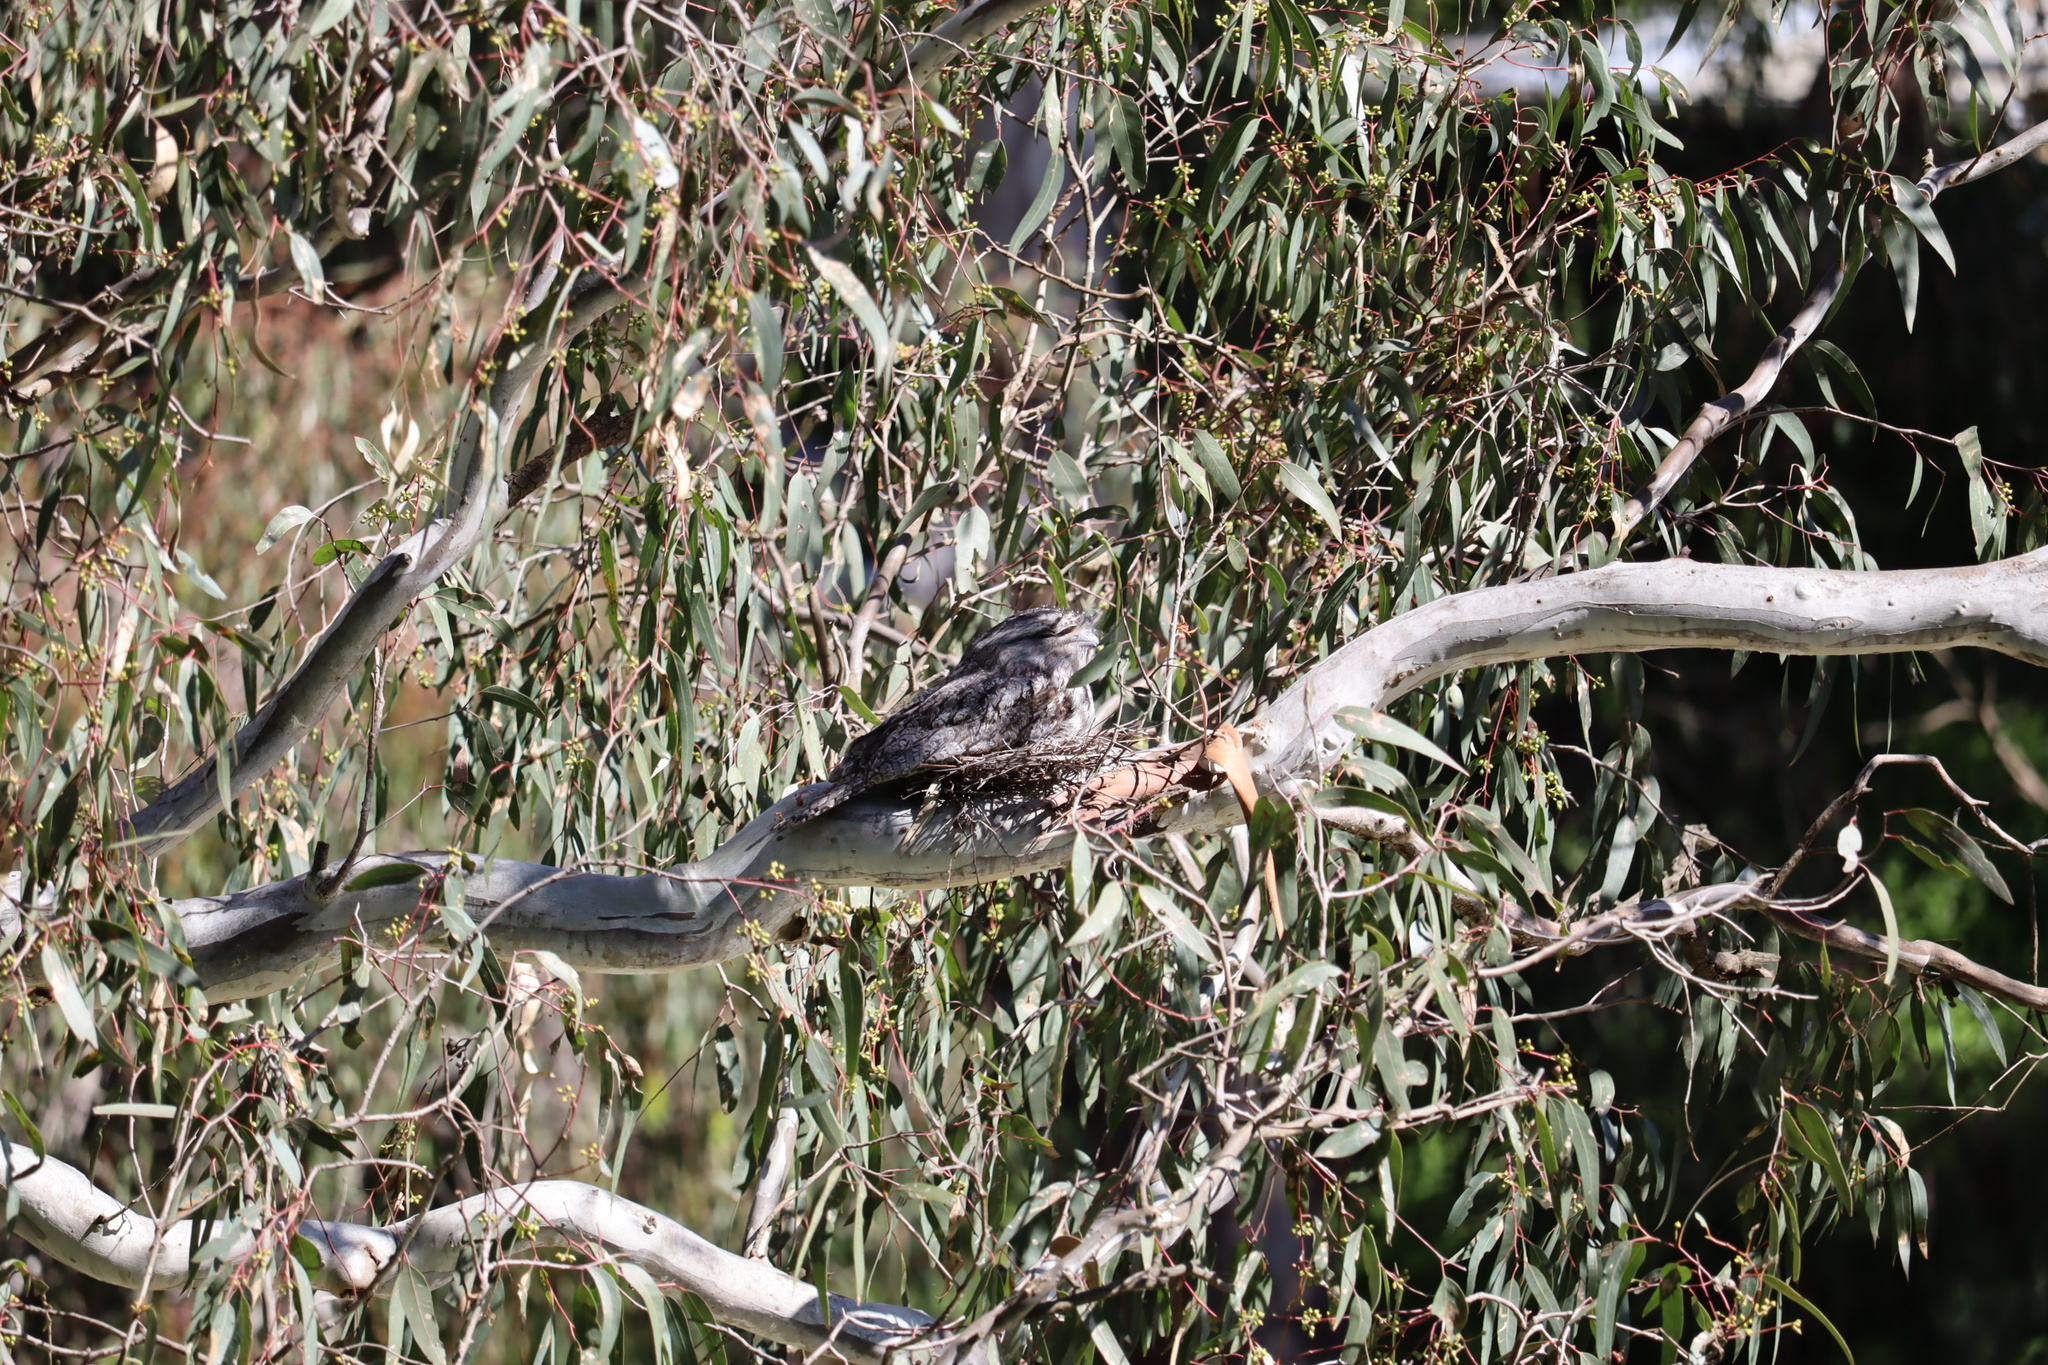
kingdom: Animalia
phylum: Chordata
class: Aves
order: Caprimulgiformes
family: Podargidae
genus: Podargus
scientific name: Podargus strigoides
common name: Tawny frogmouth
